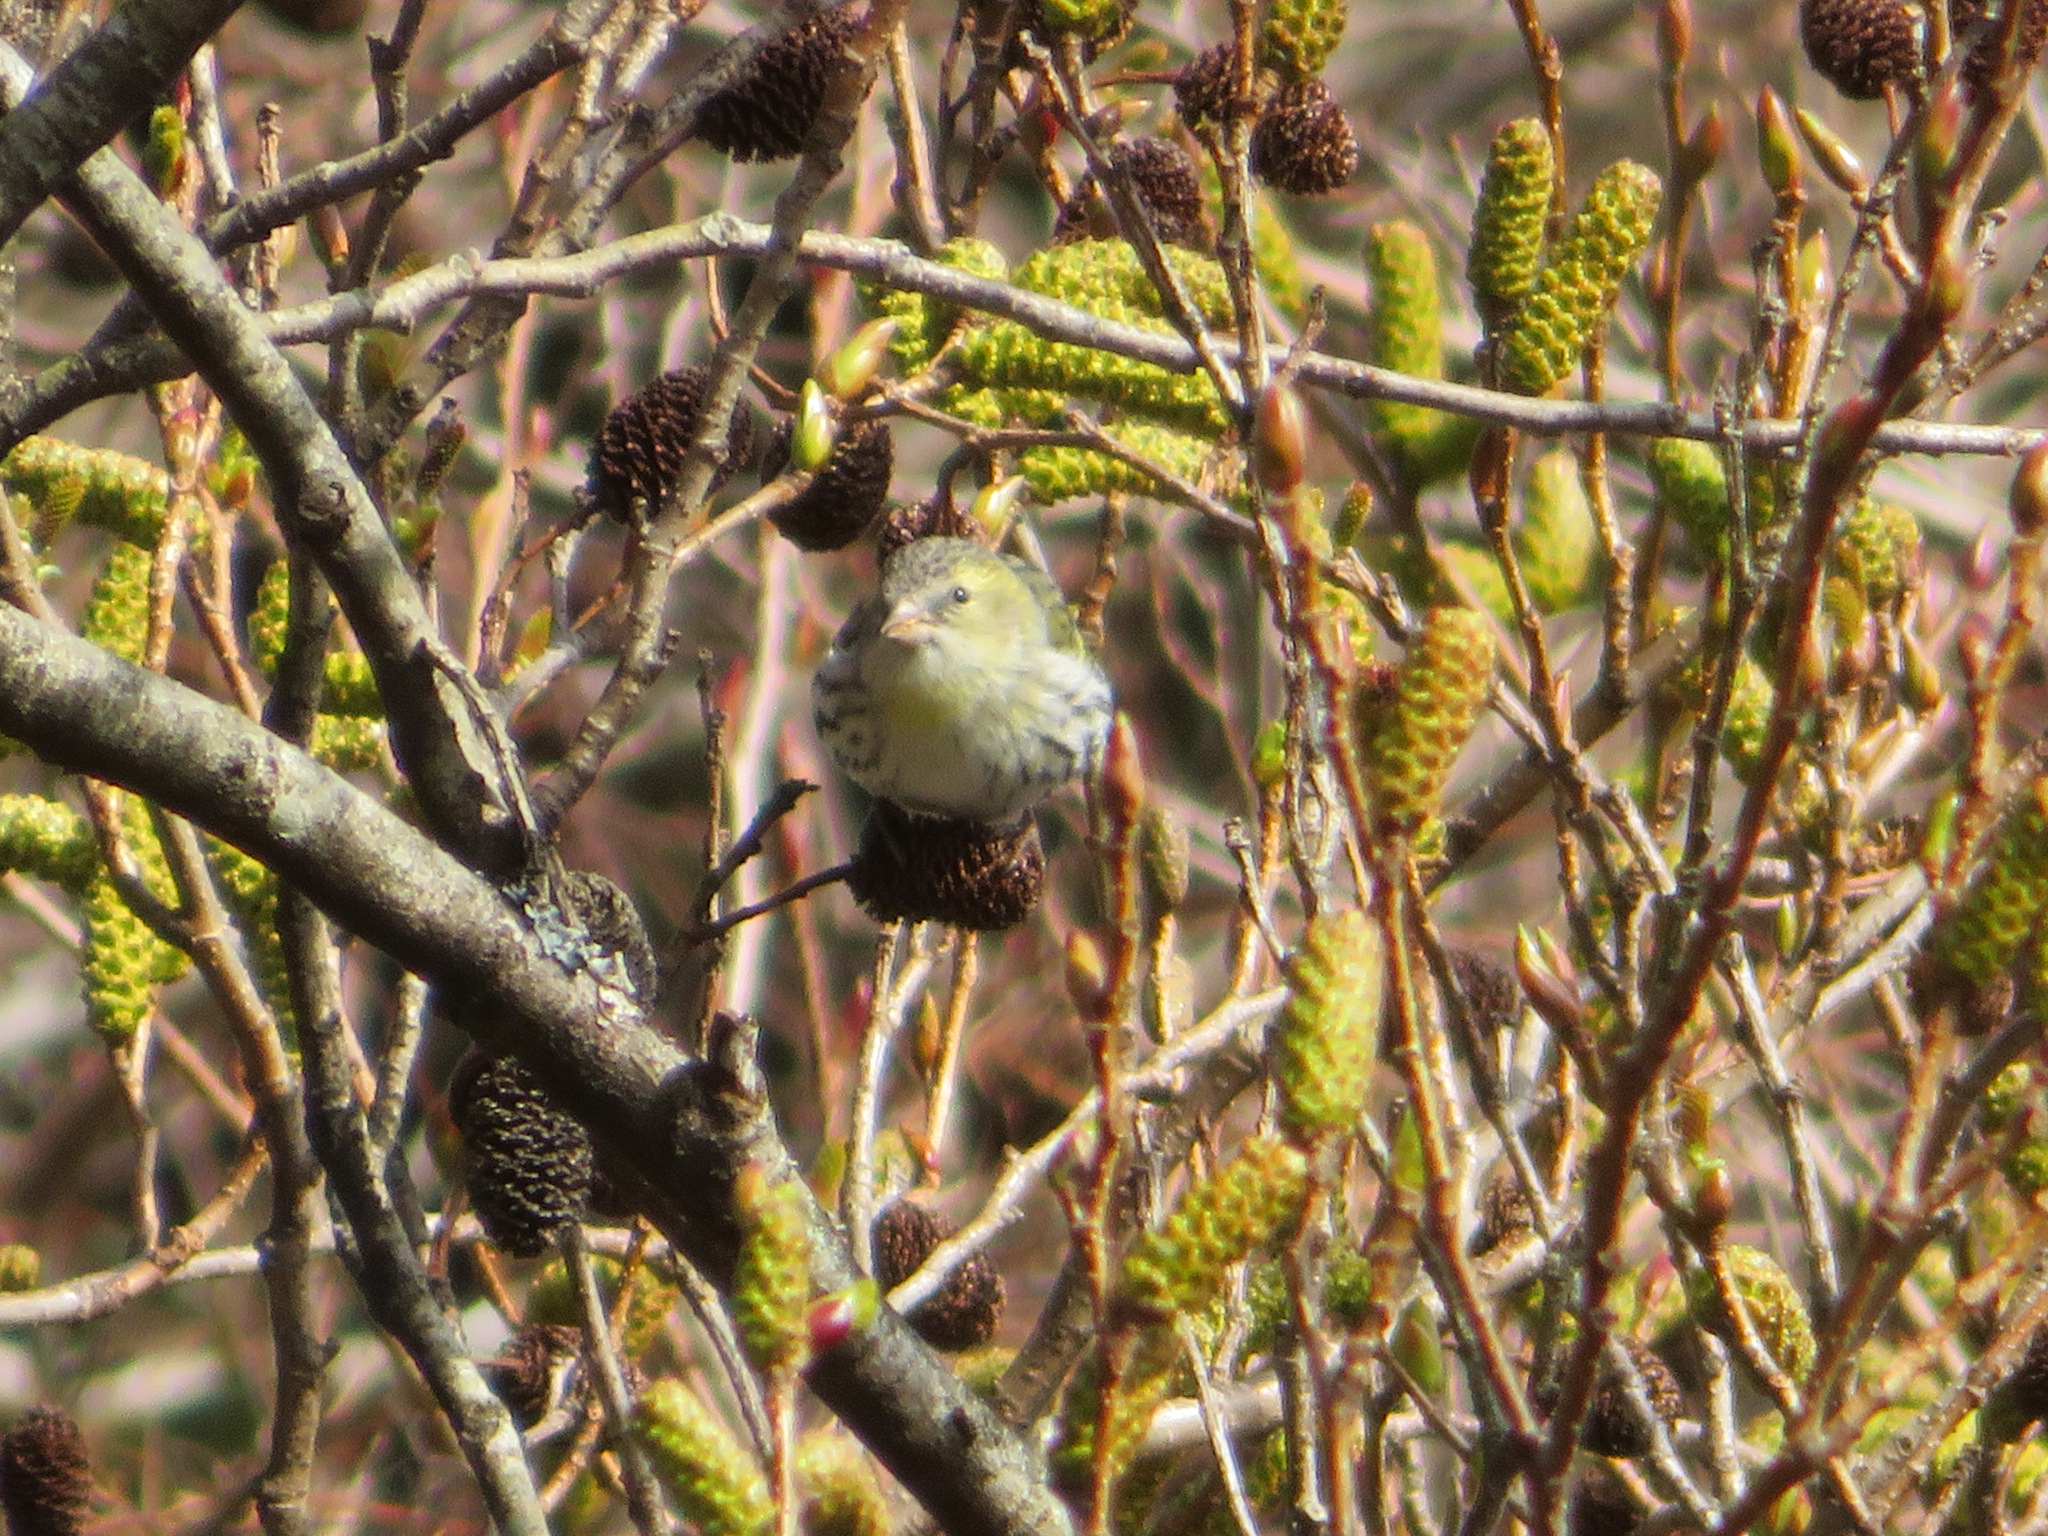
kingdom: Animalia
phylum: Chordata
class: Aves
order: Passeriformes
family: Fringillidae
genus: Spinus
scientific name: Spinus spinus
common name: Eurasian siskin
